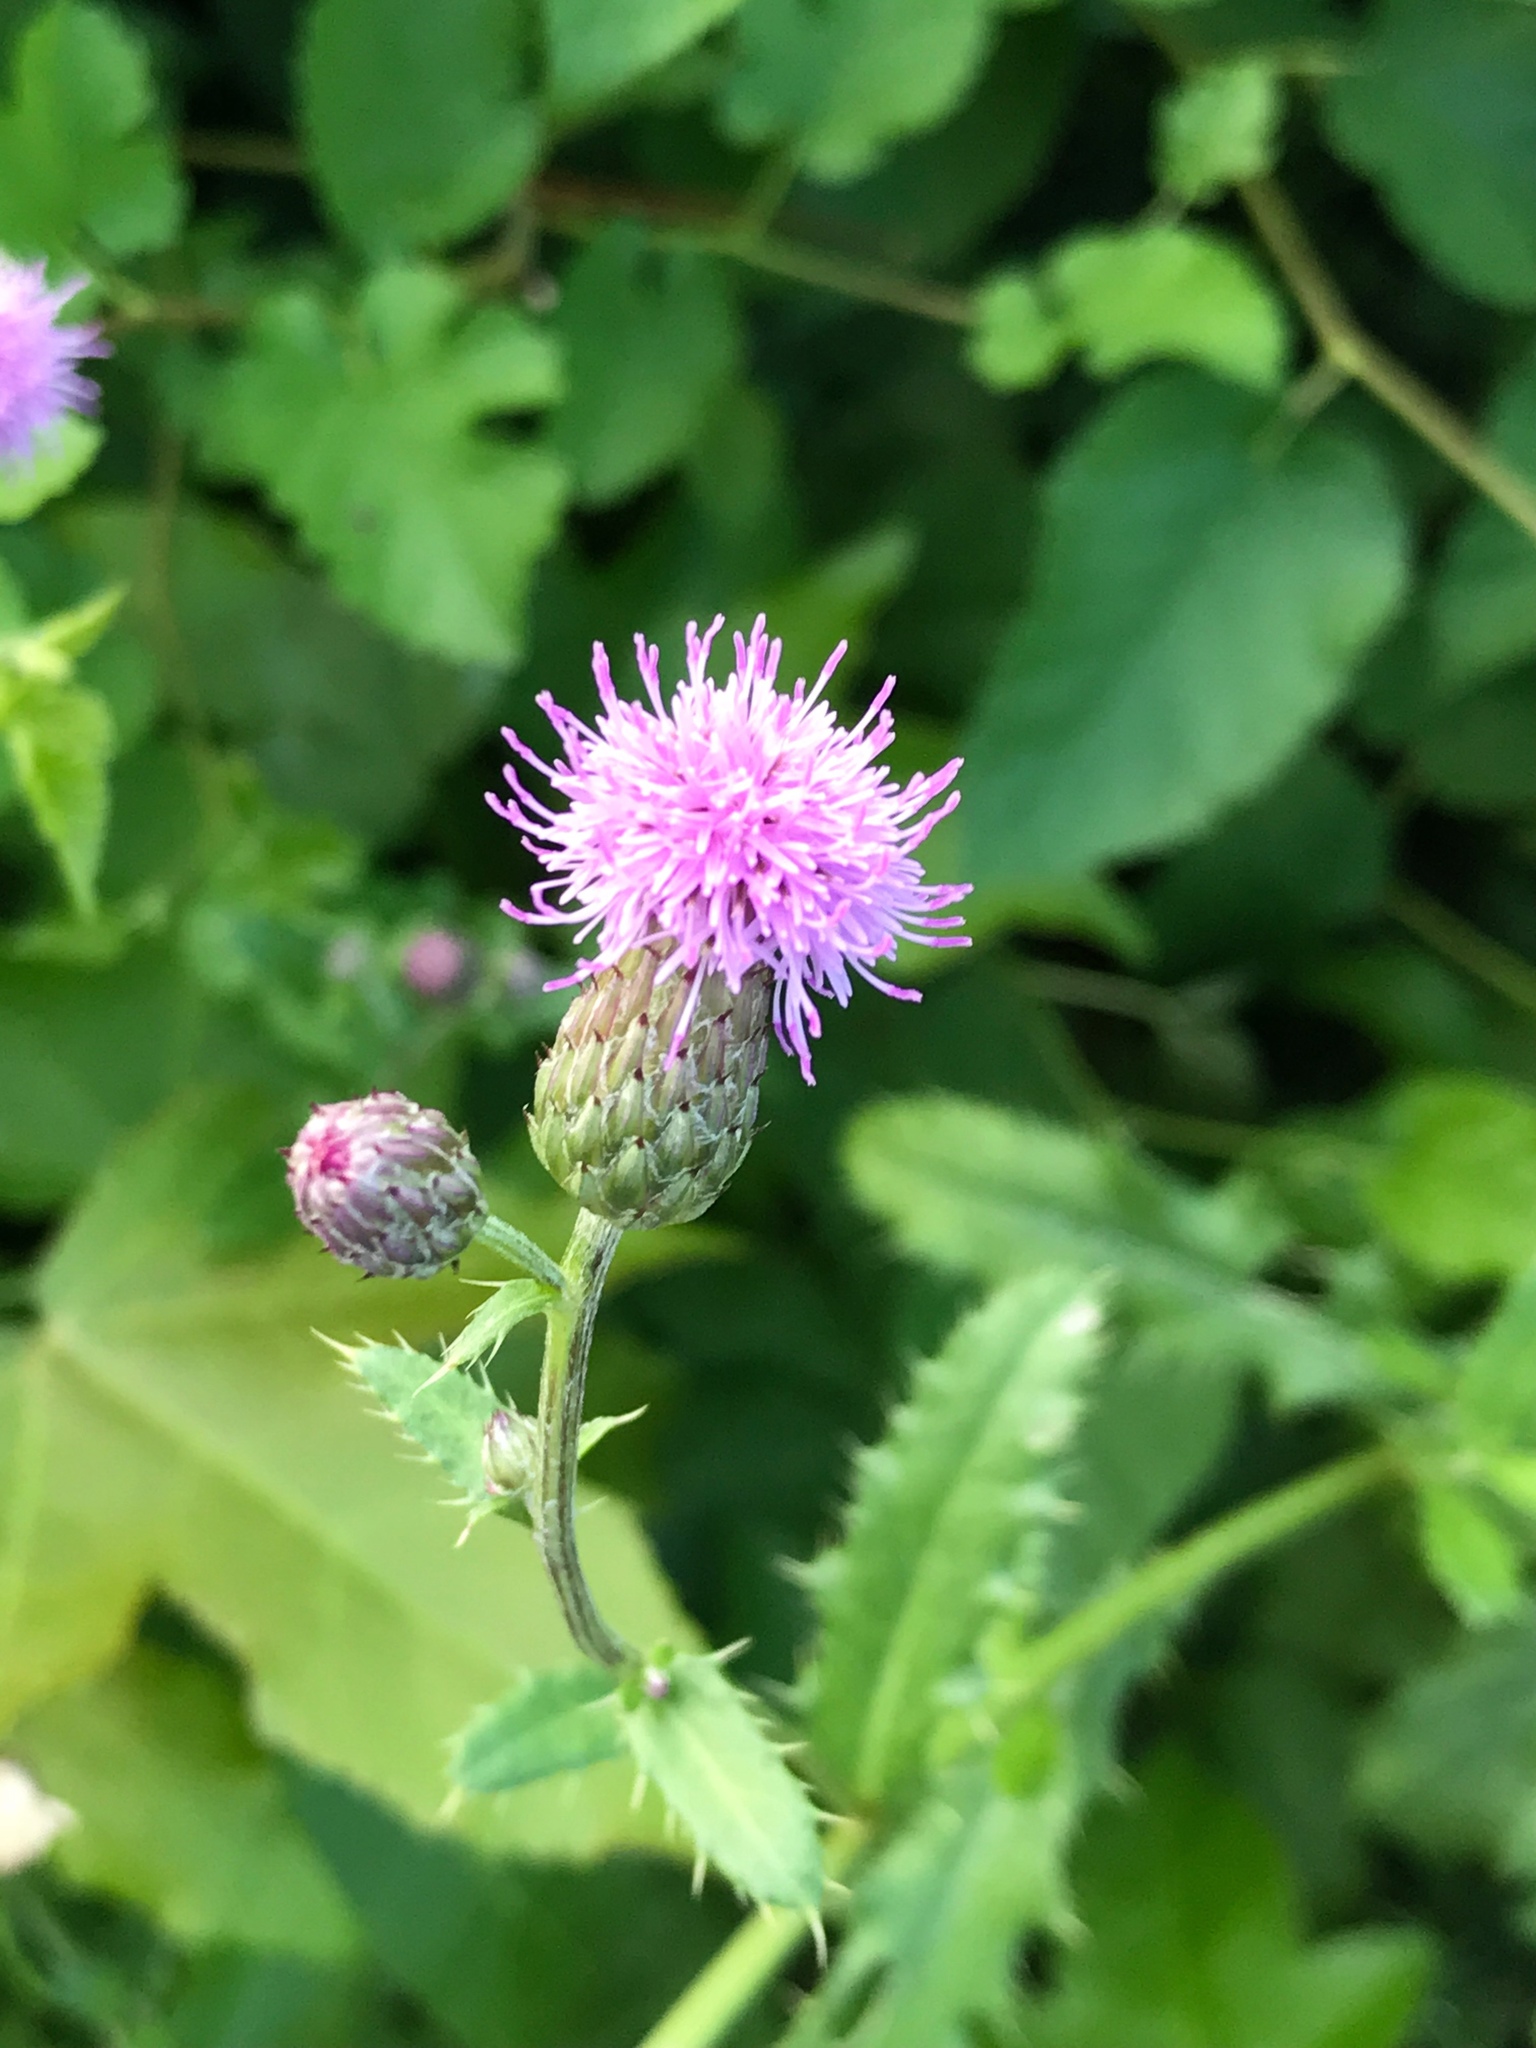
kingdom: Plantae
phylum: Tracheophyta
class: Magnoliopsida
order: Asterales
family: Asteraceae
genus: Cirsium
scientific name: Cirsium arvense
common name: Creeping thistle
